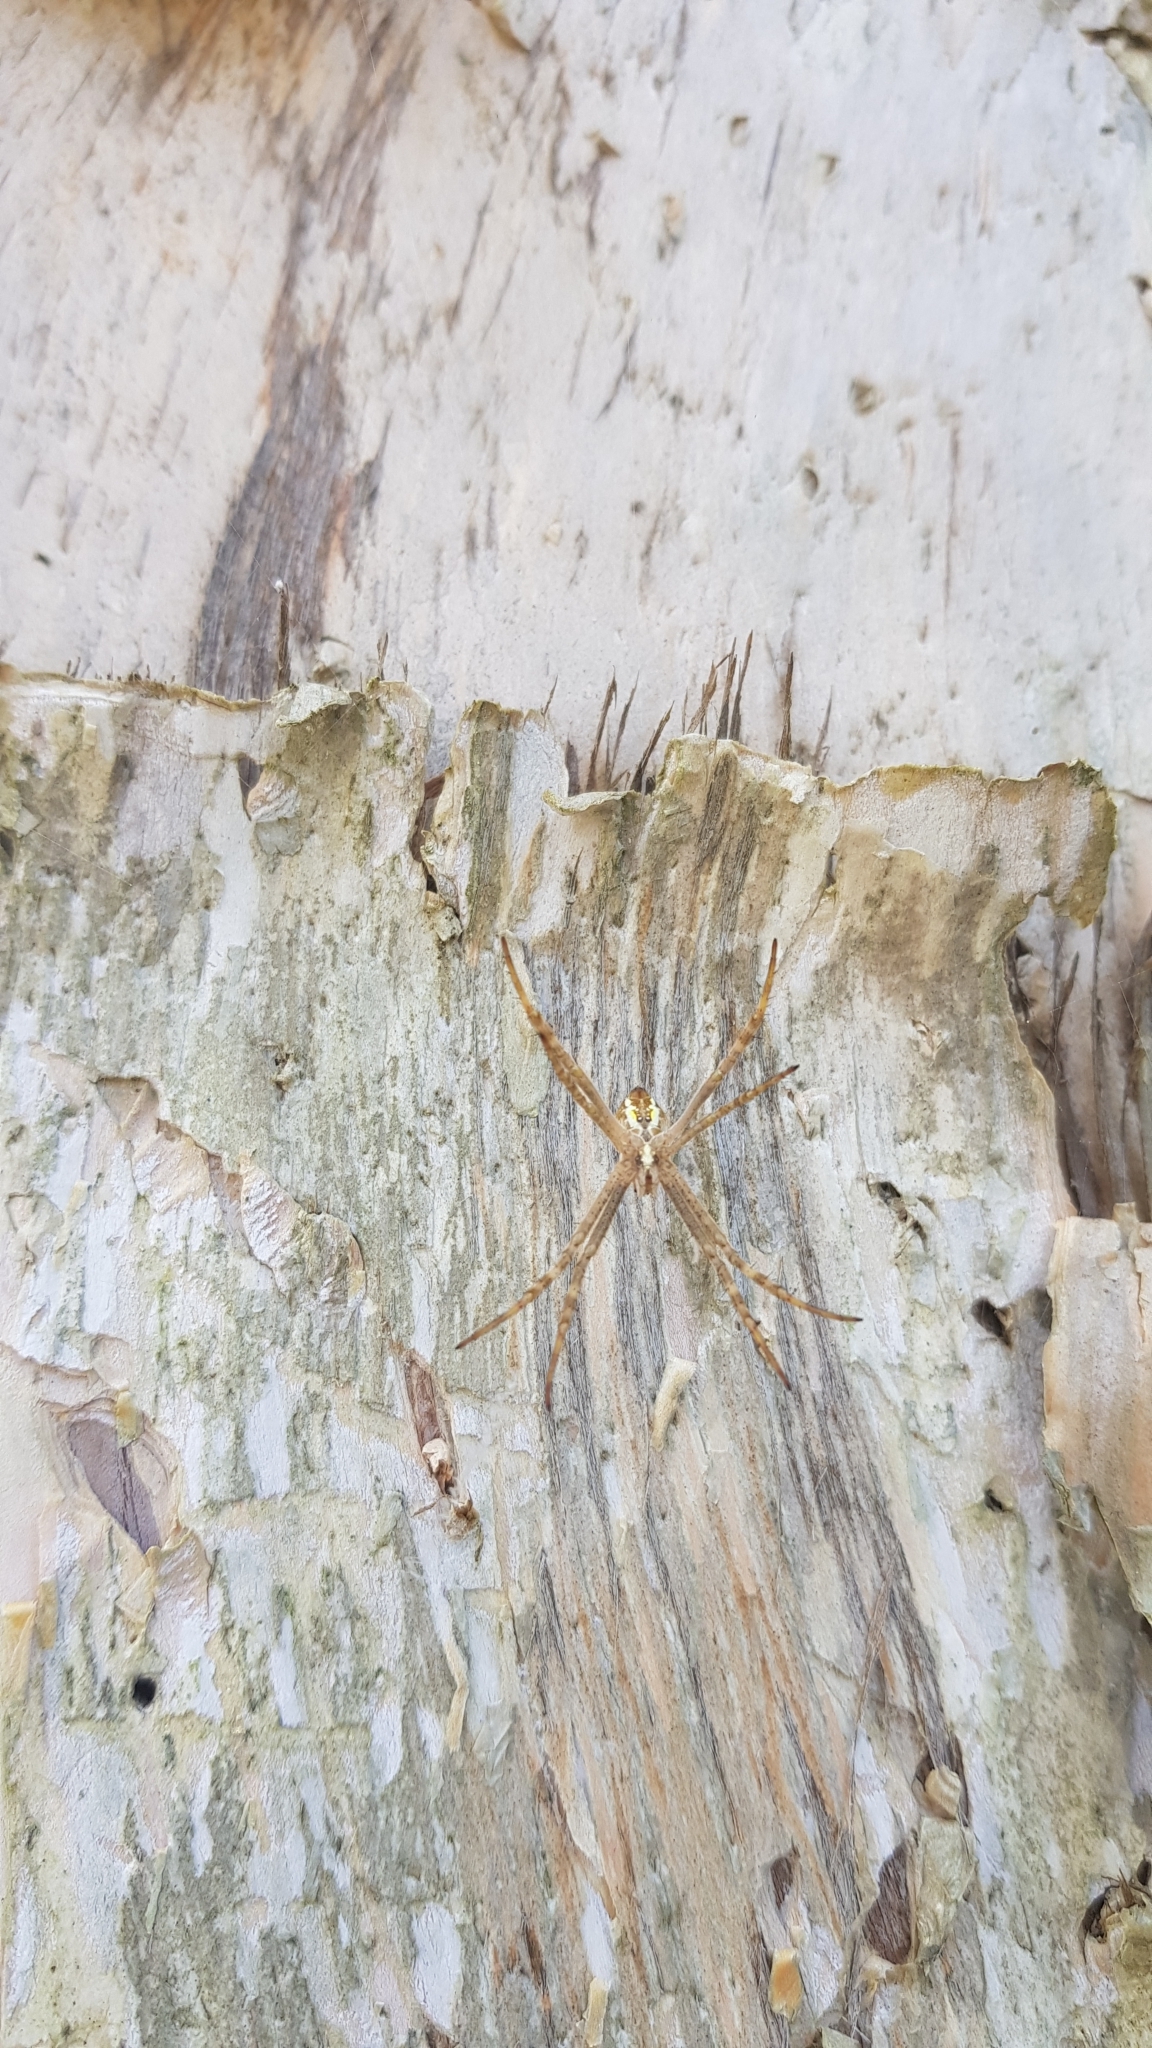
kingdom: Animalia
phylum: Arthropoda
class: Arachnida
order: Araneae
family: Araneidae
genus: Argiope
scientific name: Argiope keyserlingi
